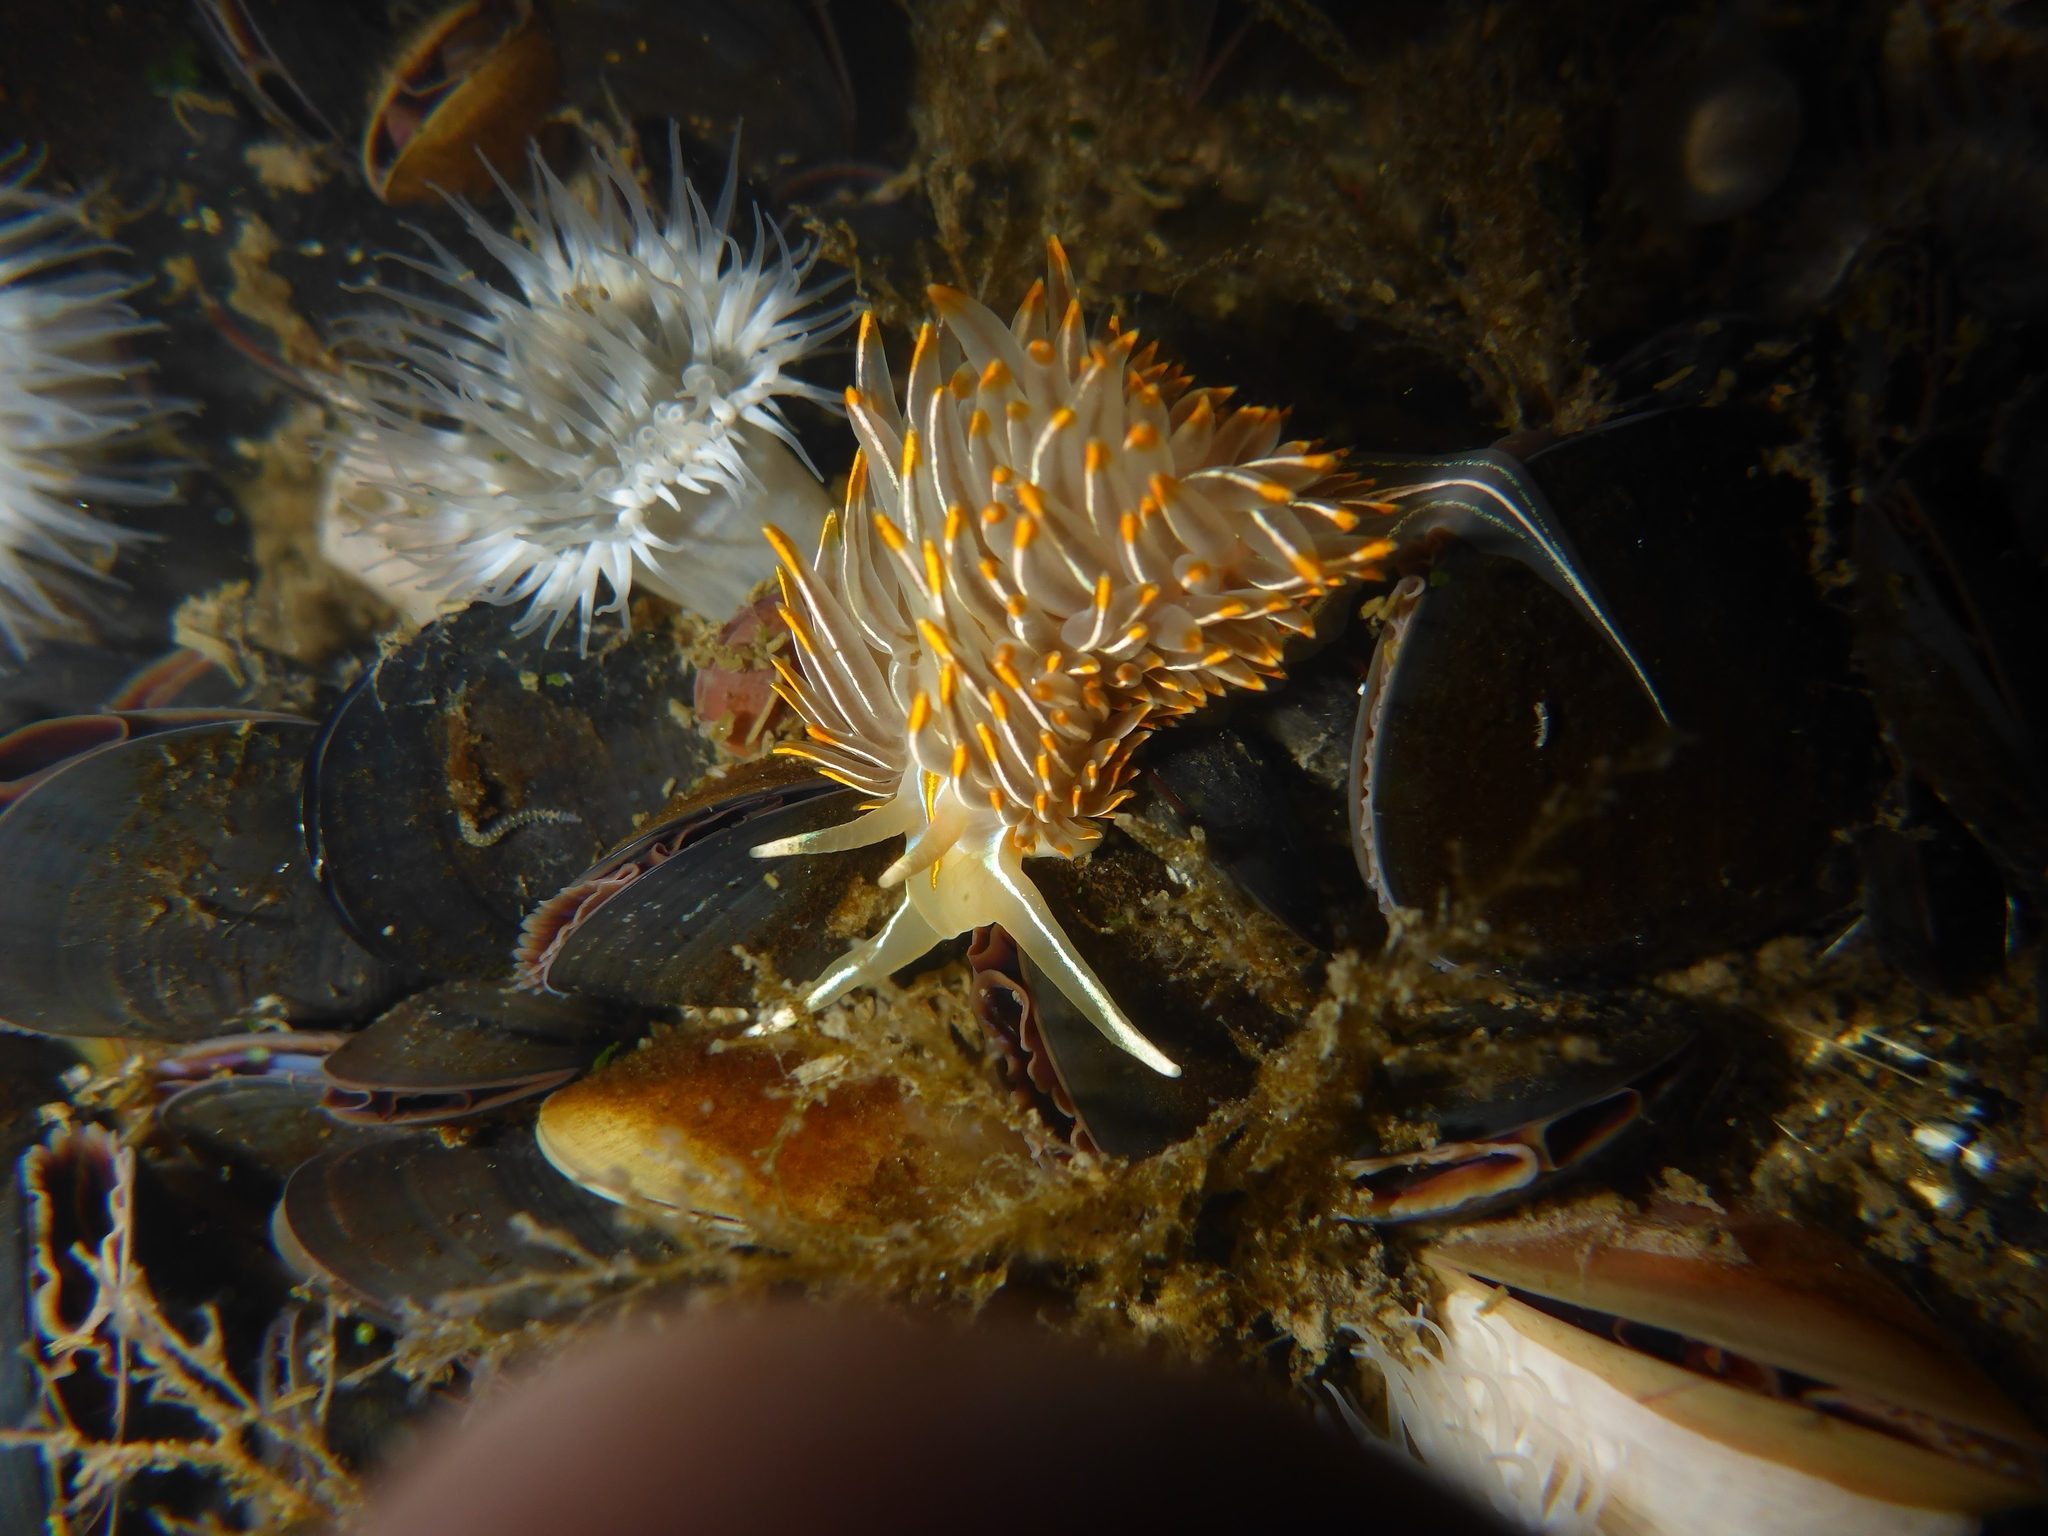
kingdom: Animalia
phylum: Mollusca
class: Gastropoda
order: Nudibranchia
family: Myrrhinidae
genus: Hermissenda
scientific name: Hermissenda crassicornis
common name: Hermissenda
